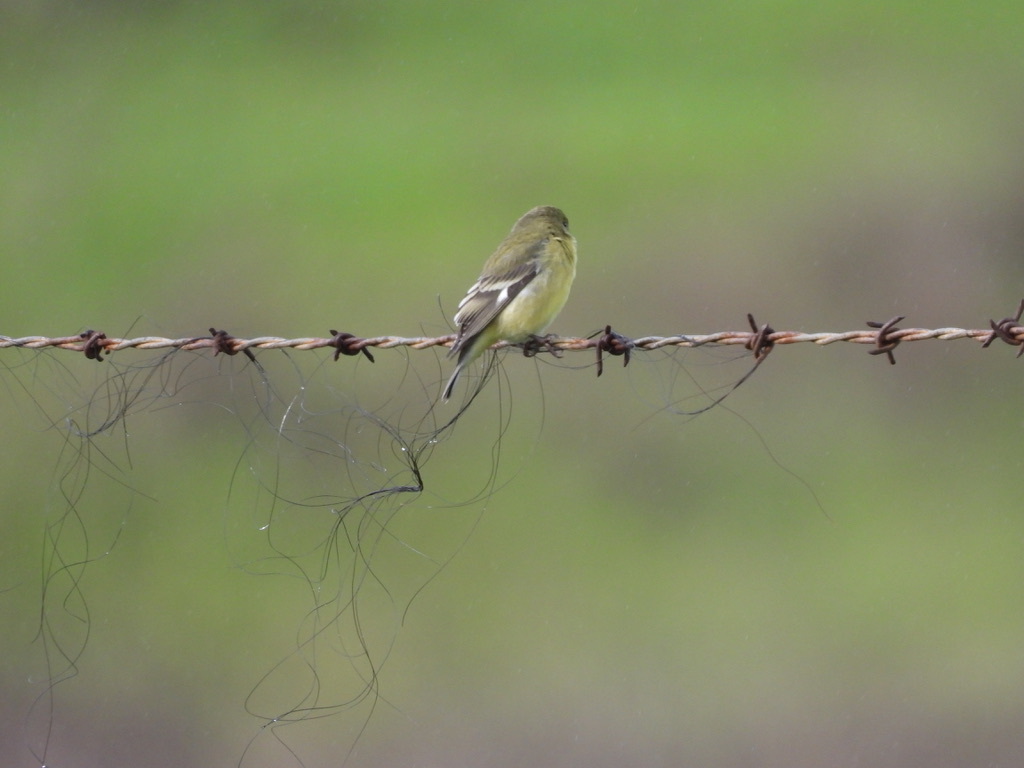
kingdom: Animalia
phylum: Chordata
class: Aves
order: Passeriformes
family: Fringillidae
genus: Spinus
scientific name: Spinus psaltria
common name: Lesser goldfinch
